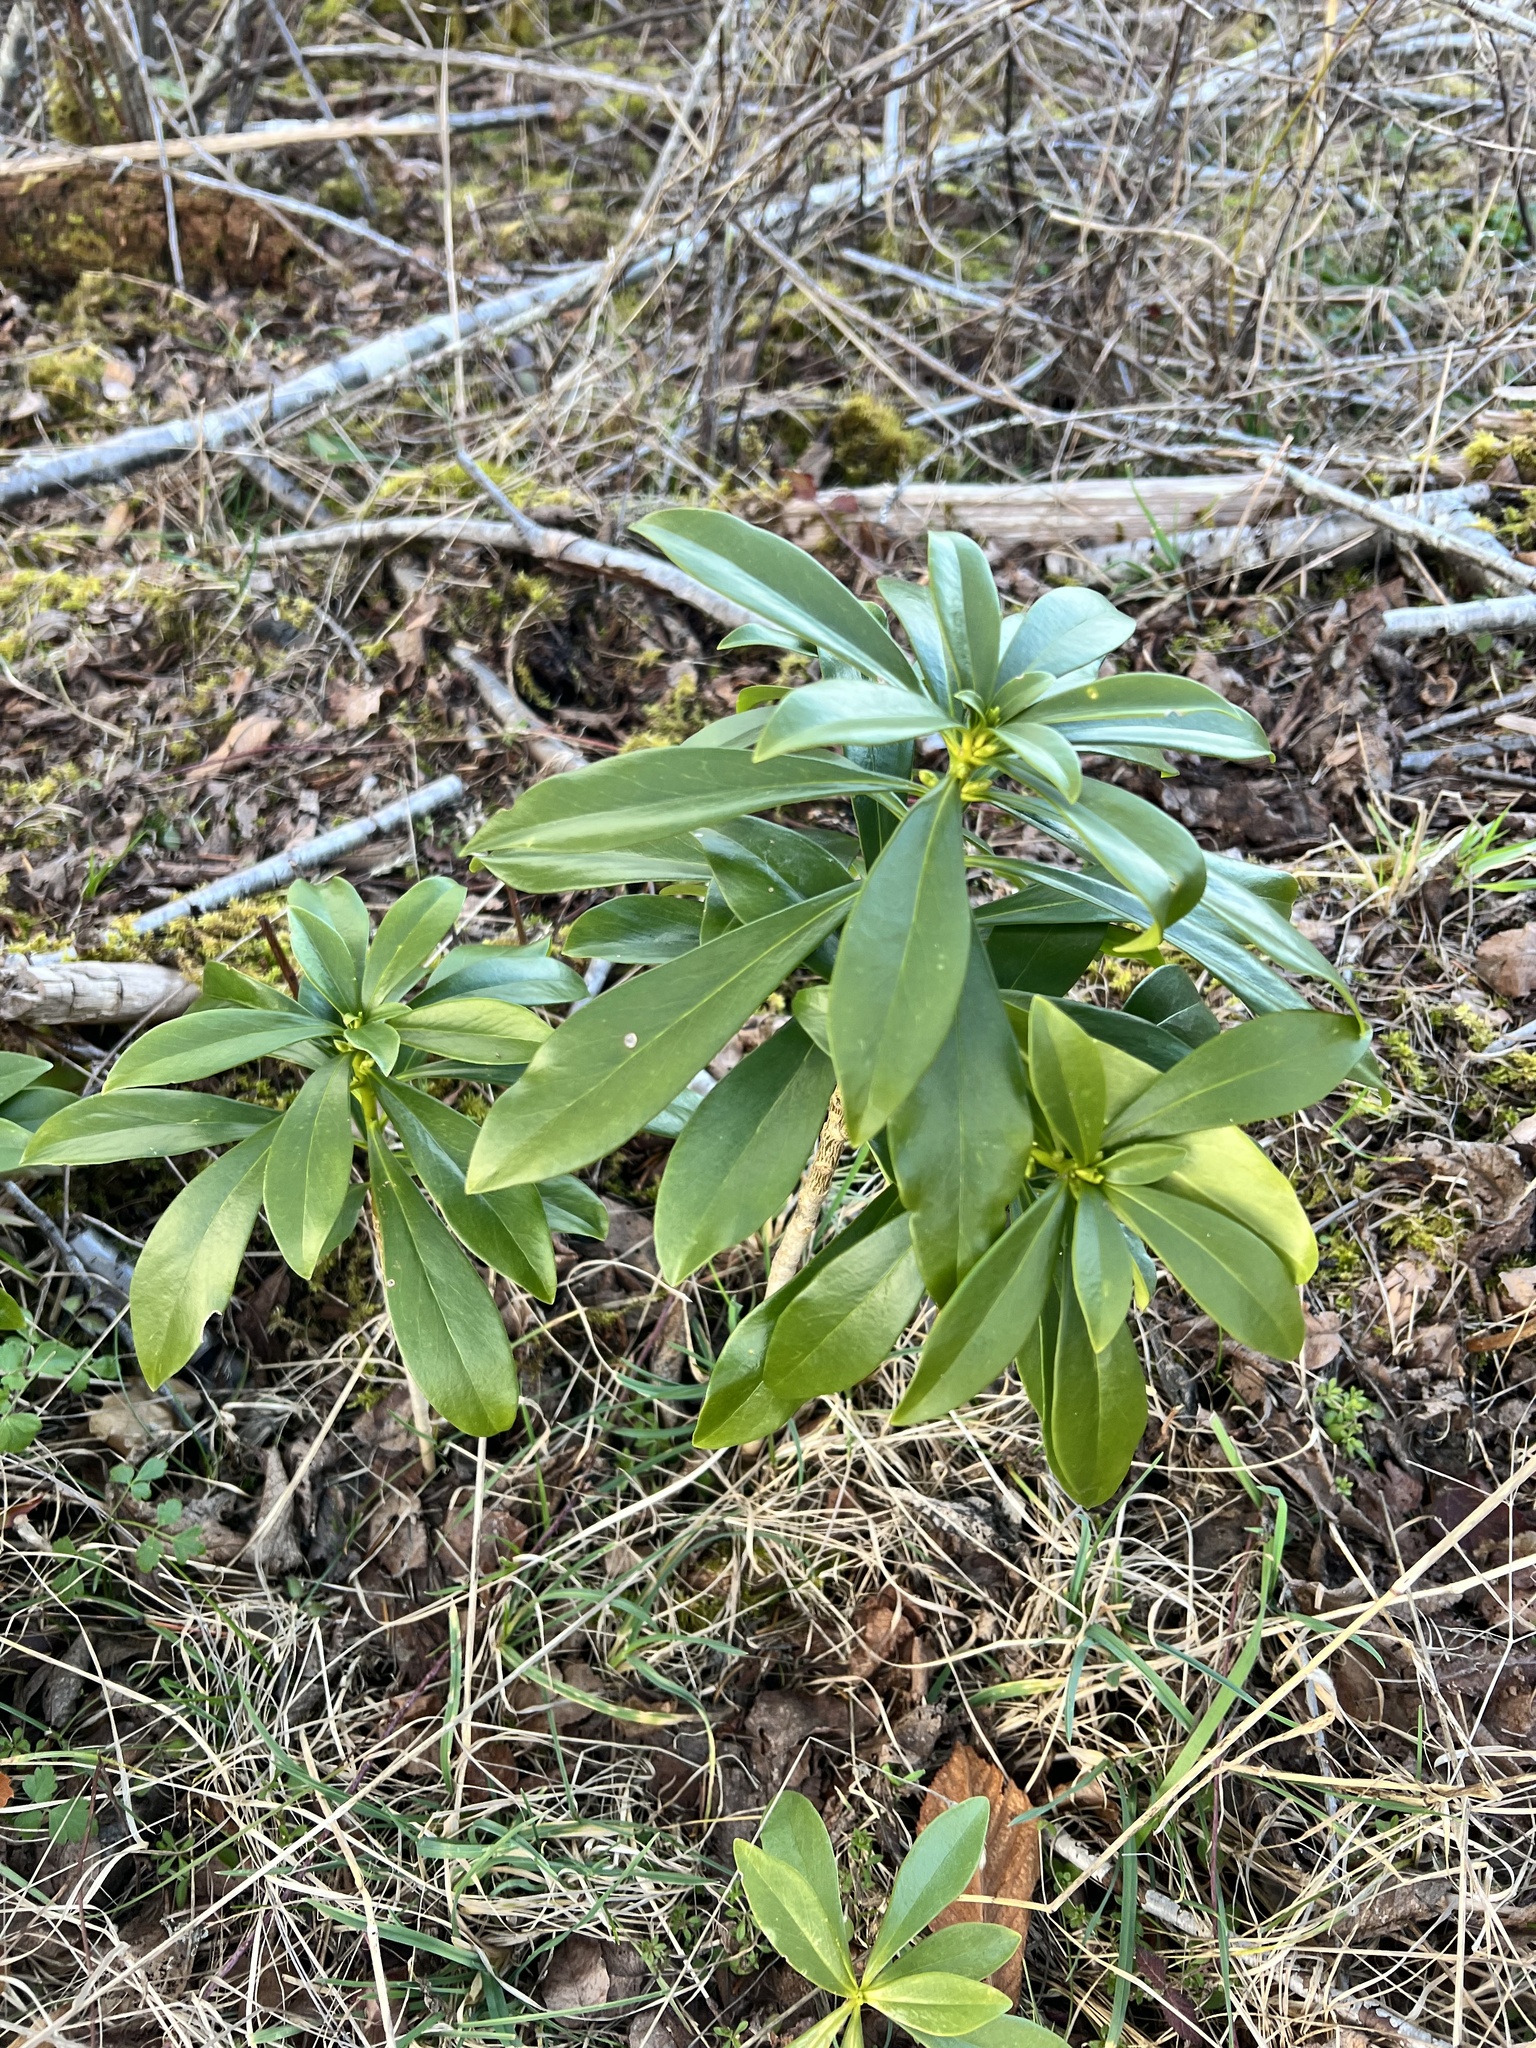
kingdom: Plantae
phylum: Tracheophyta
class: Magnoliopsida
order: Malvales
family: Thymelaeaceae
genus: Daphne
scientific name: Daphne laureola
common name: Spurge-laurel
